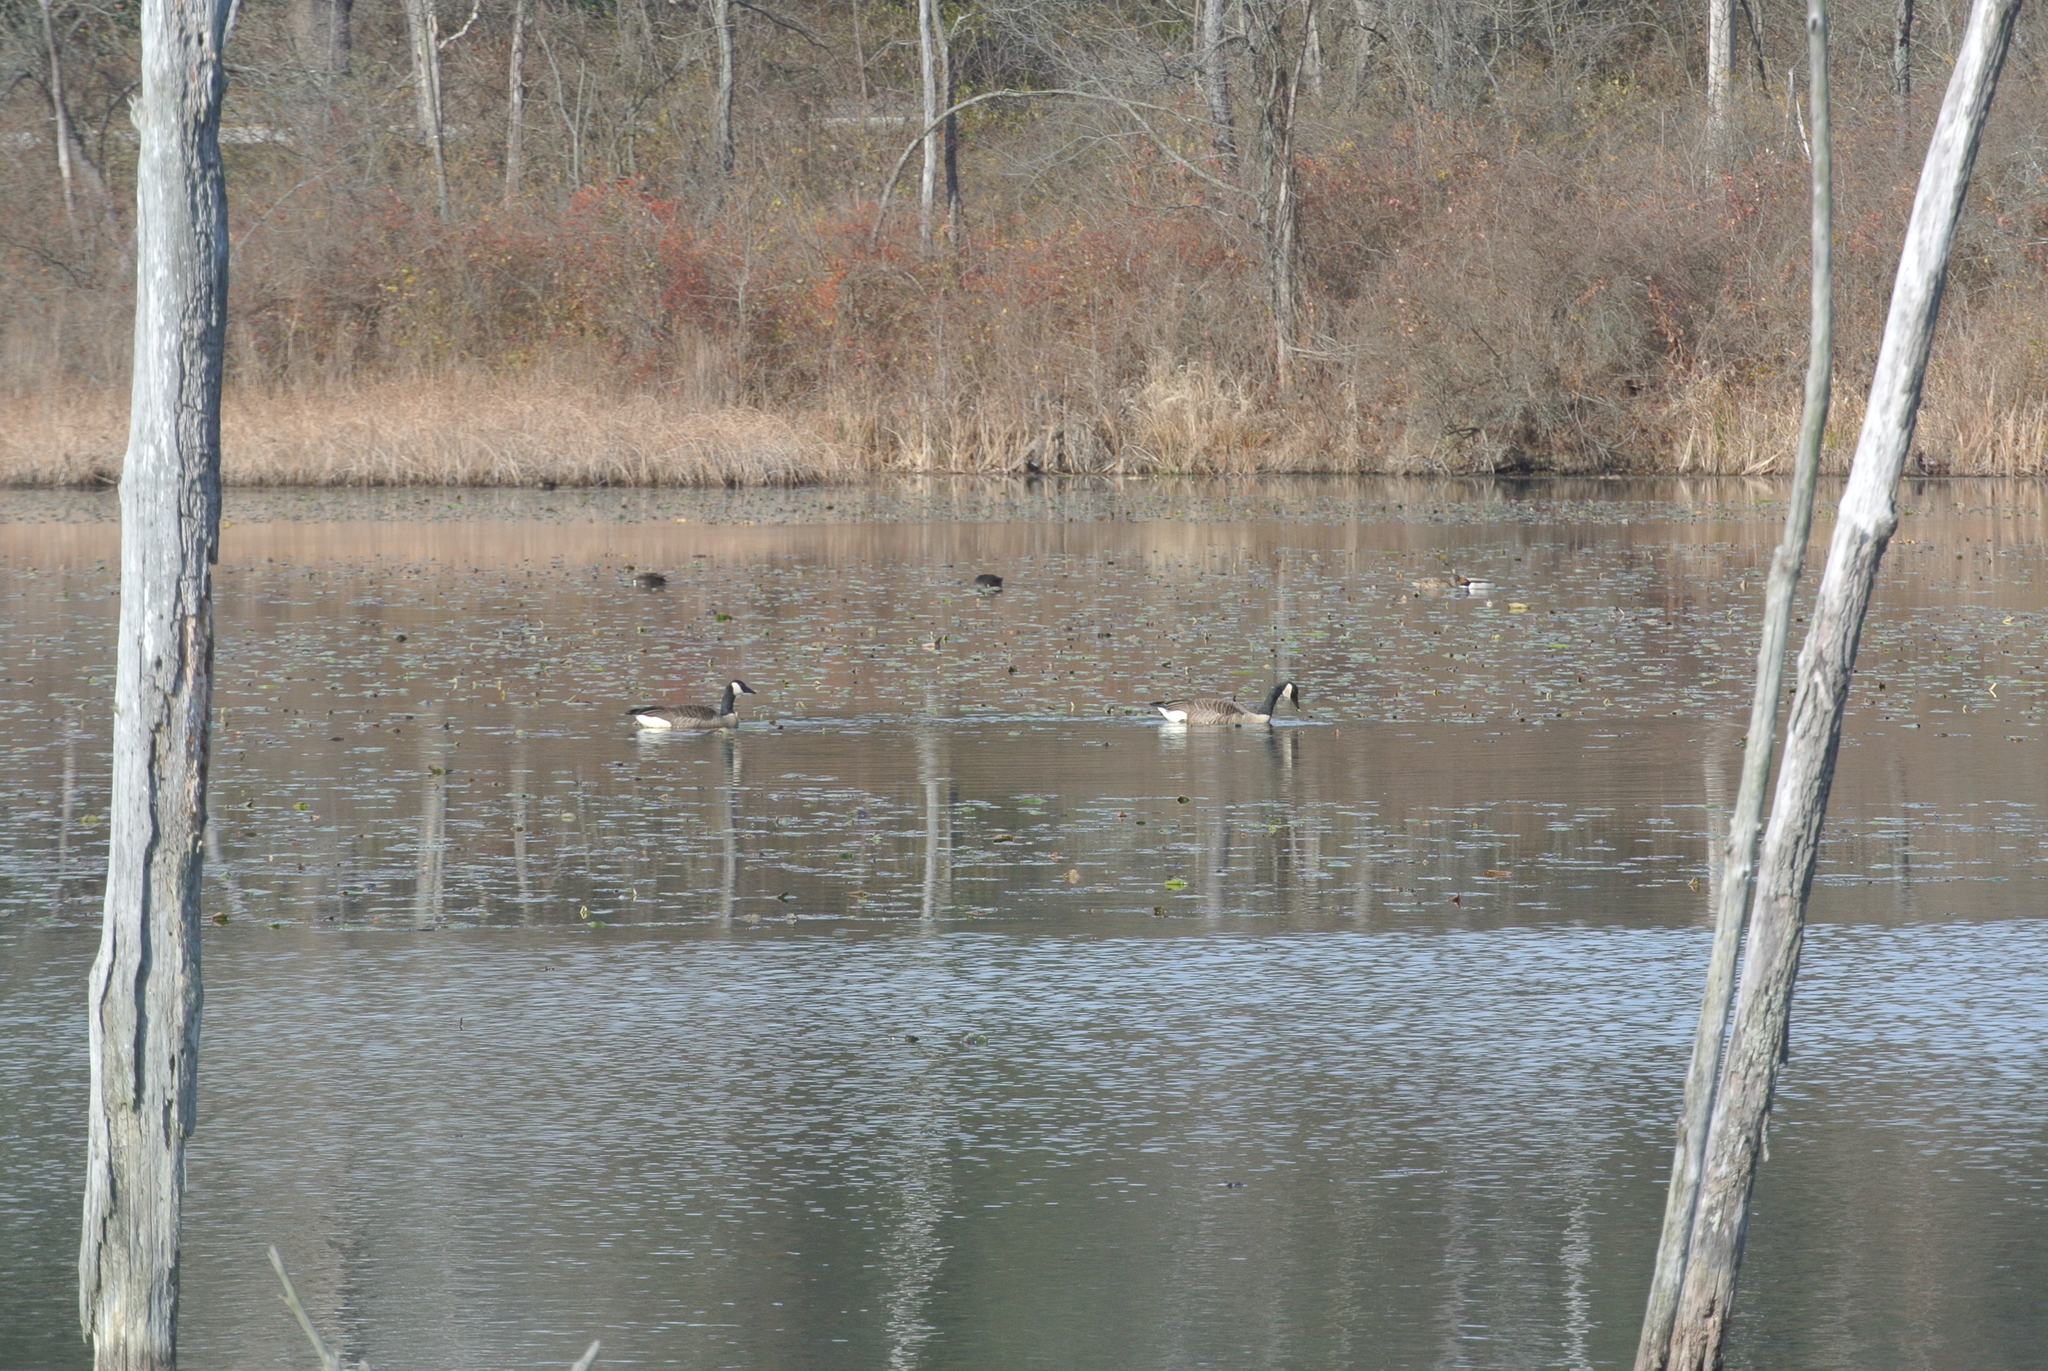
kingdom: Animalia
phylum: Chordata
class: Aves
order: Anseriformes
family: Anatidae
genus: Branta
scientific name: Branta canadensis
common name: Canada goose
